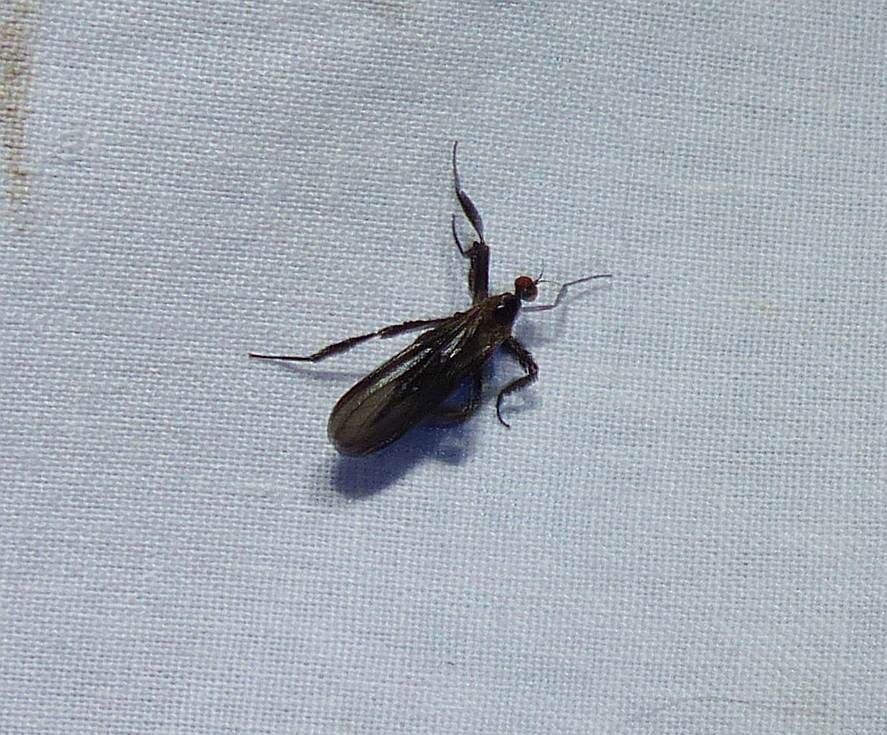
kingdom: Animalia
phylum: Arthropoda
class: Insecta
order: Diptera
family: Empididae
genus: Rhamphomyia
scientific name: Rhamphomyia longicauda
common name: Long-tailed dance fly
